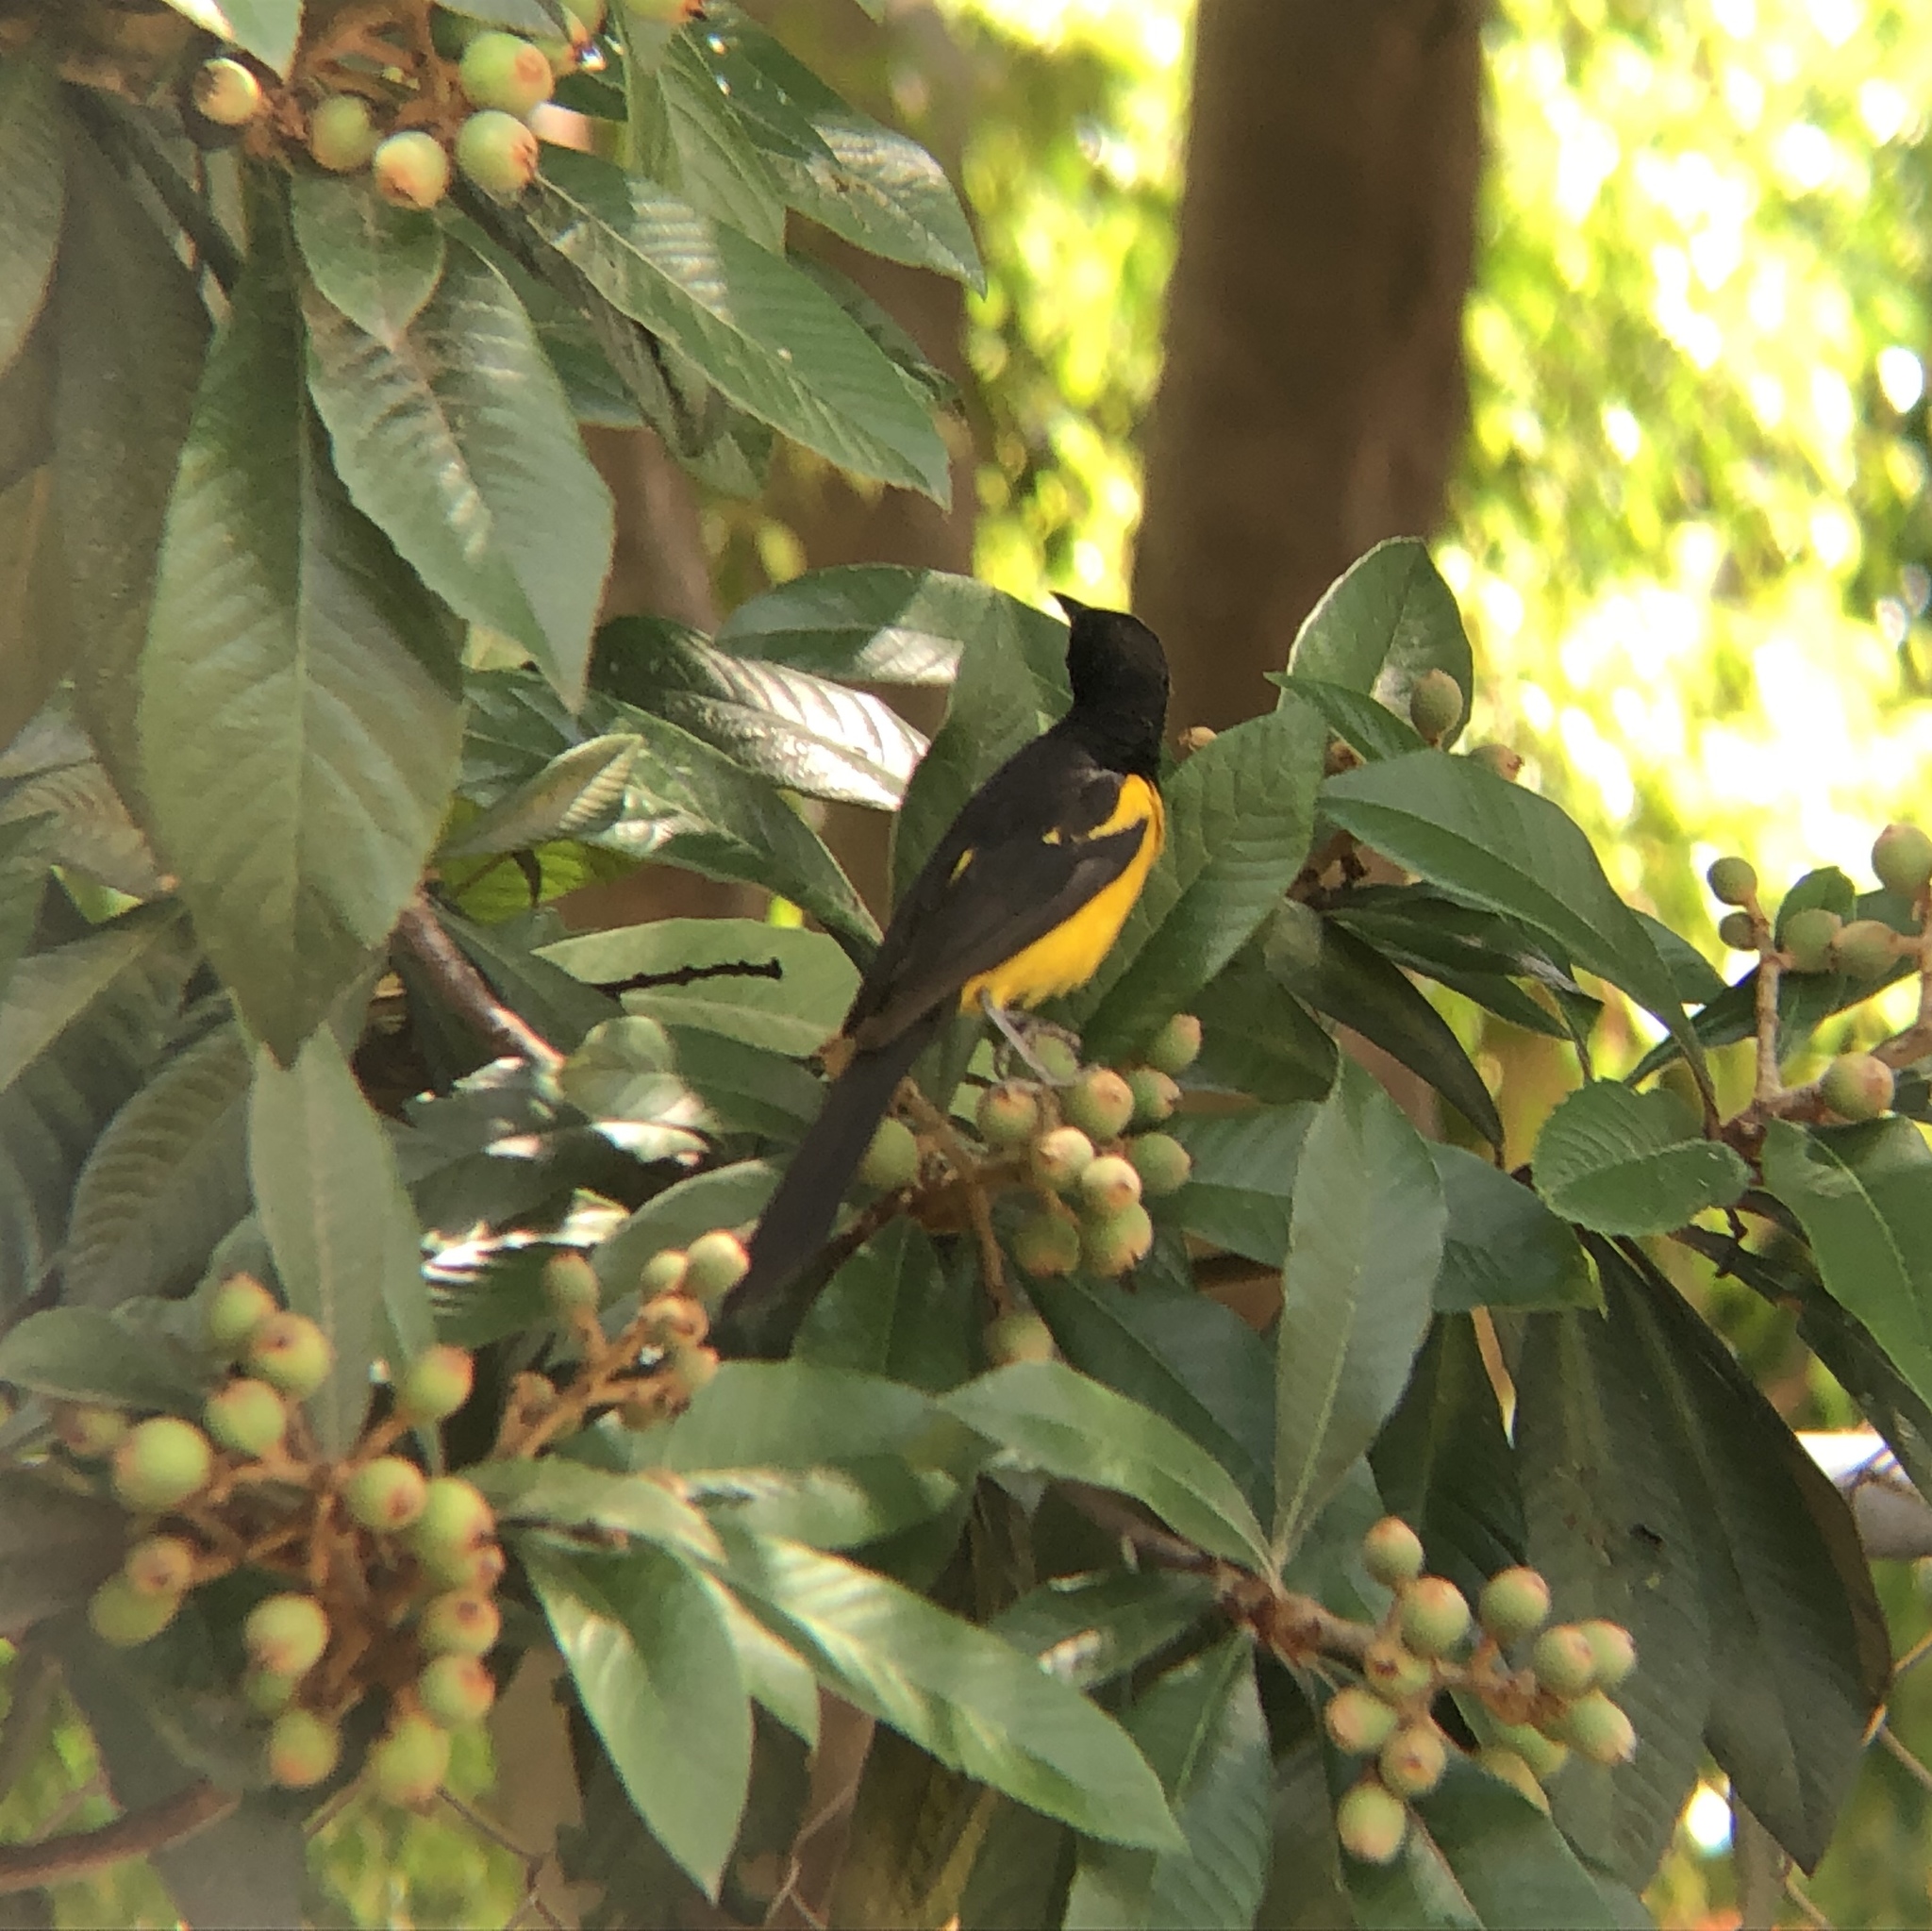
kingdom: Animalia
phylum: Chordata
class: Aves
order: Passeriformes
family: Icteridae
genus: Icterus
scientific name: Icterus wagleri
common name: Black-vented oriole
